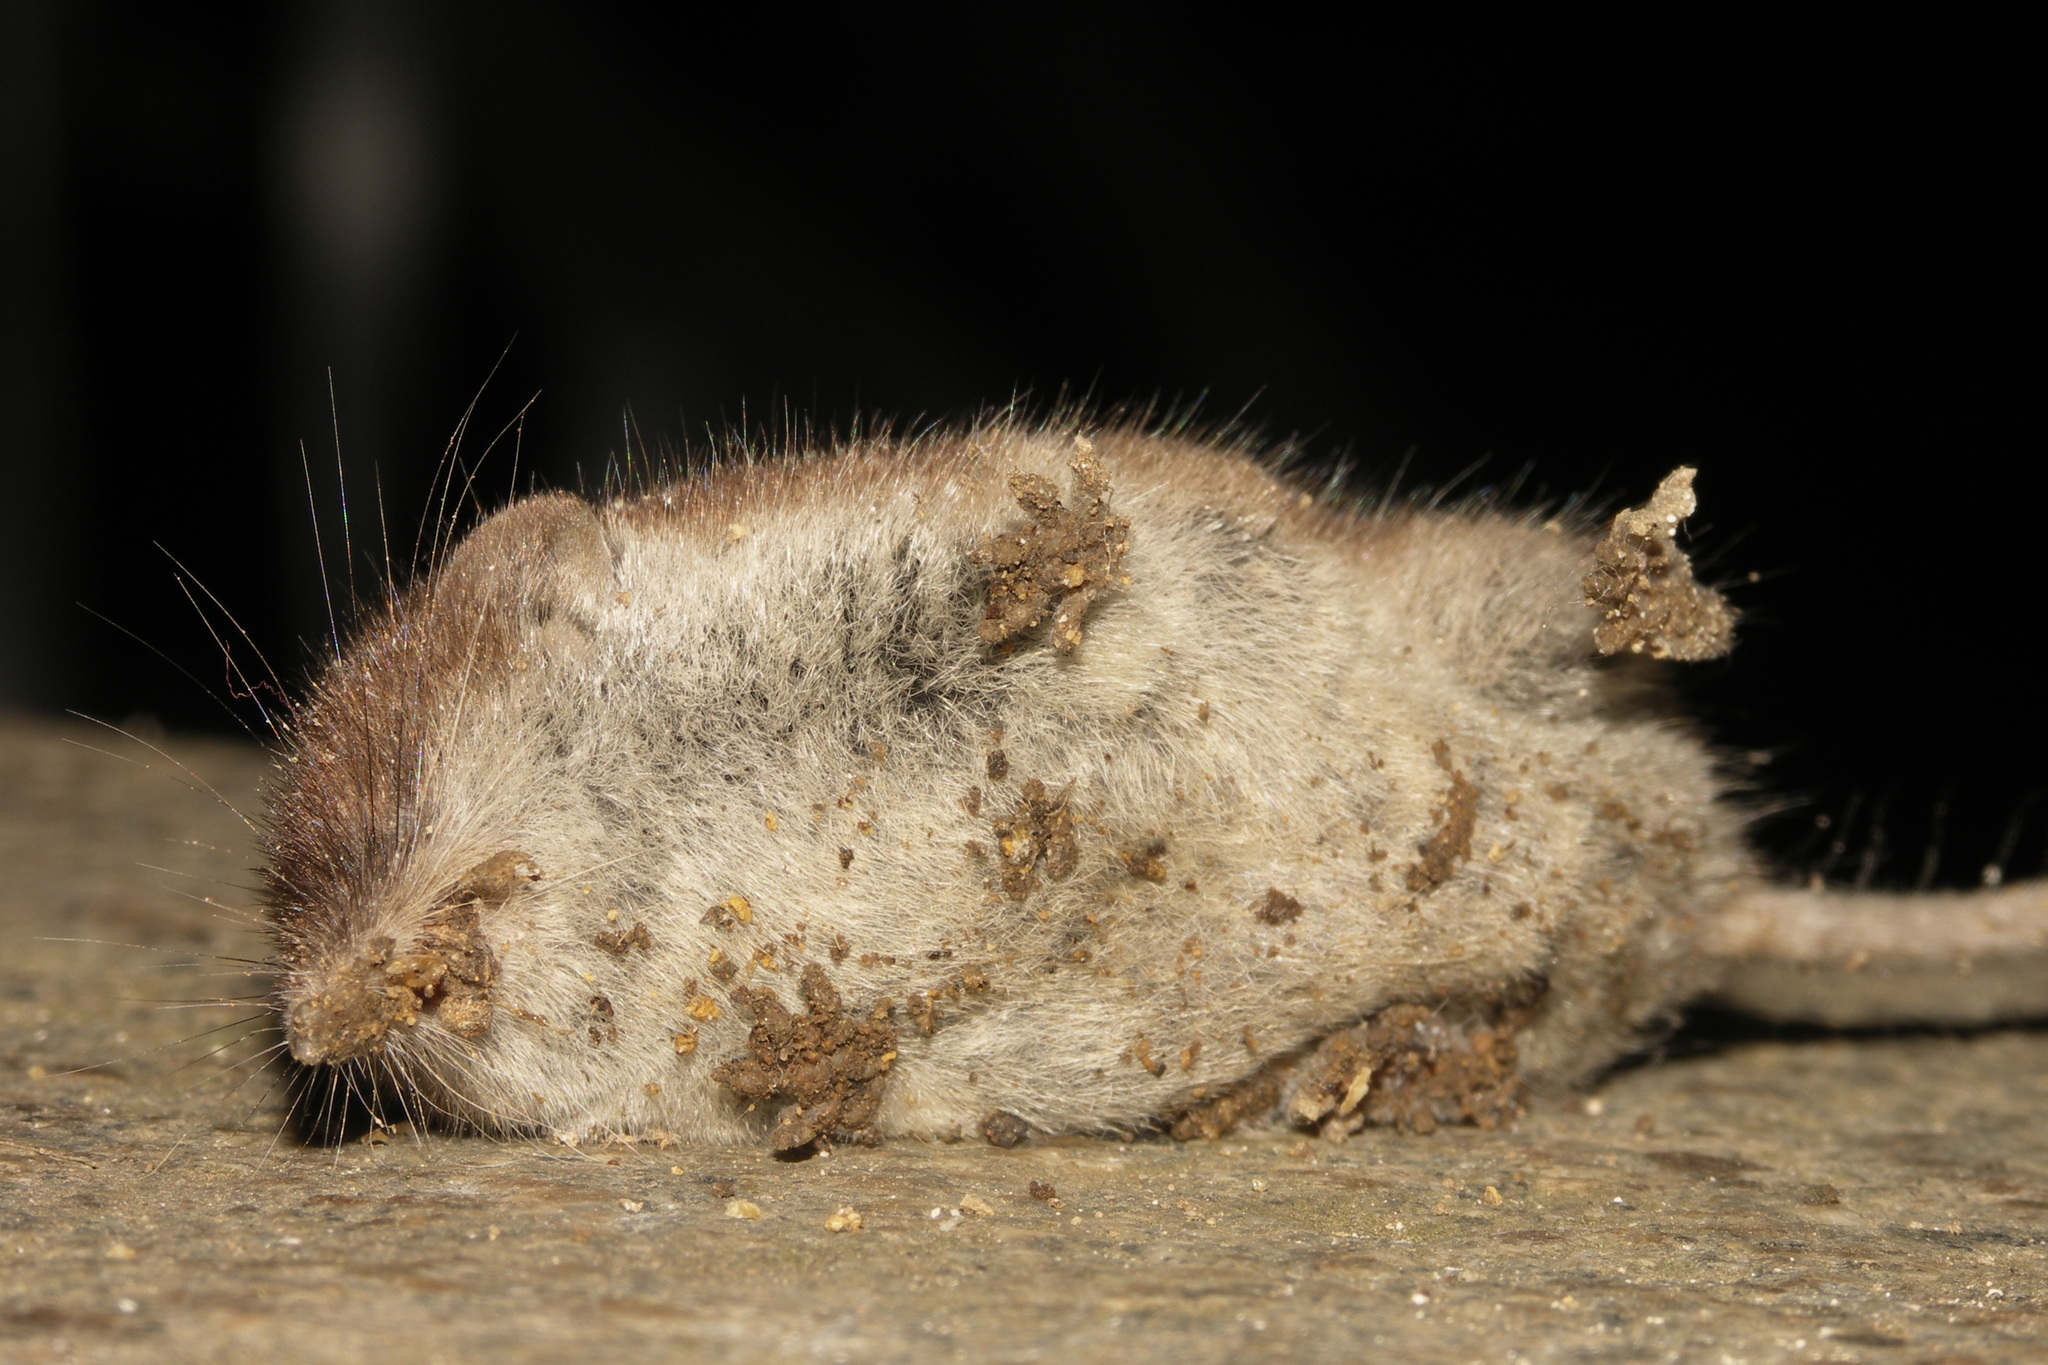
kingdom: Animalia
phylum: Chordata
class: Mammalia
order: Soricomorpha
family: Soricidae
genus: Crocidura
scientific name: Crocidura russula
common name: Greater white-toothed shrew
